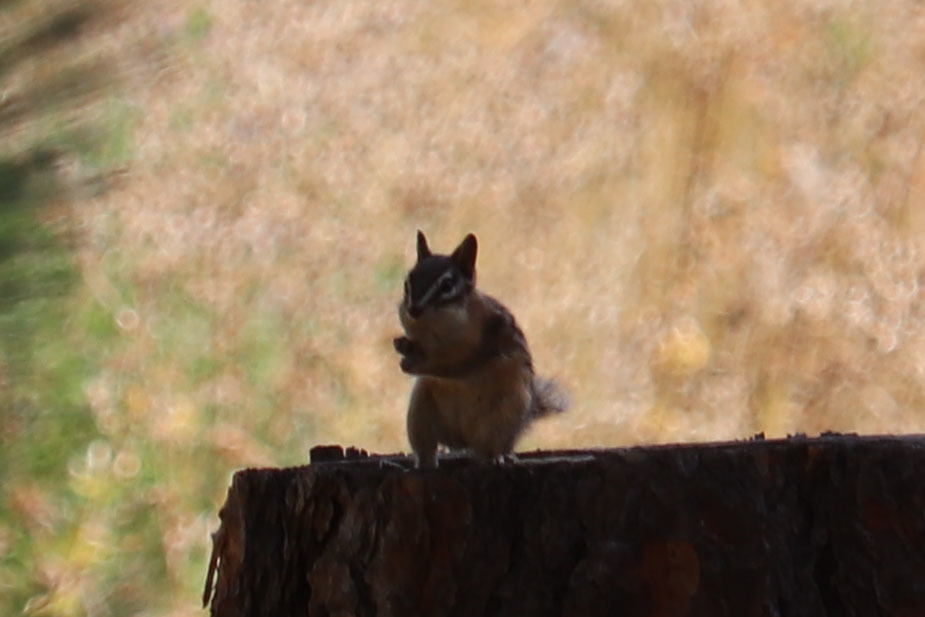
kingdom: Animalia
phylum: Chordata
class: Mammalia
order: Rodentia
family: Sciuridae
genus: Tamias
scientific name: Tamias amoenus
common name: Yellow-pine chipmunk
